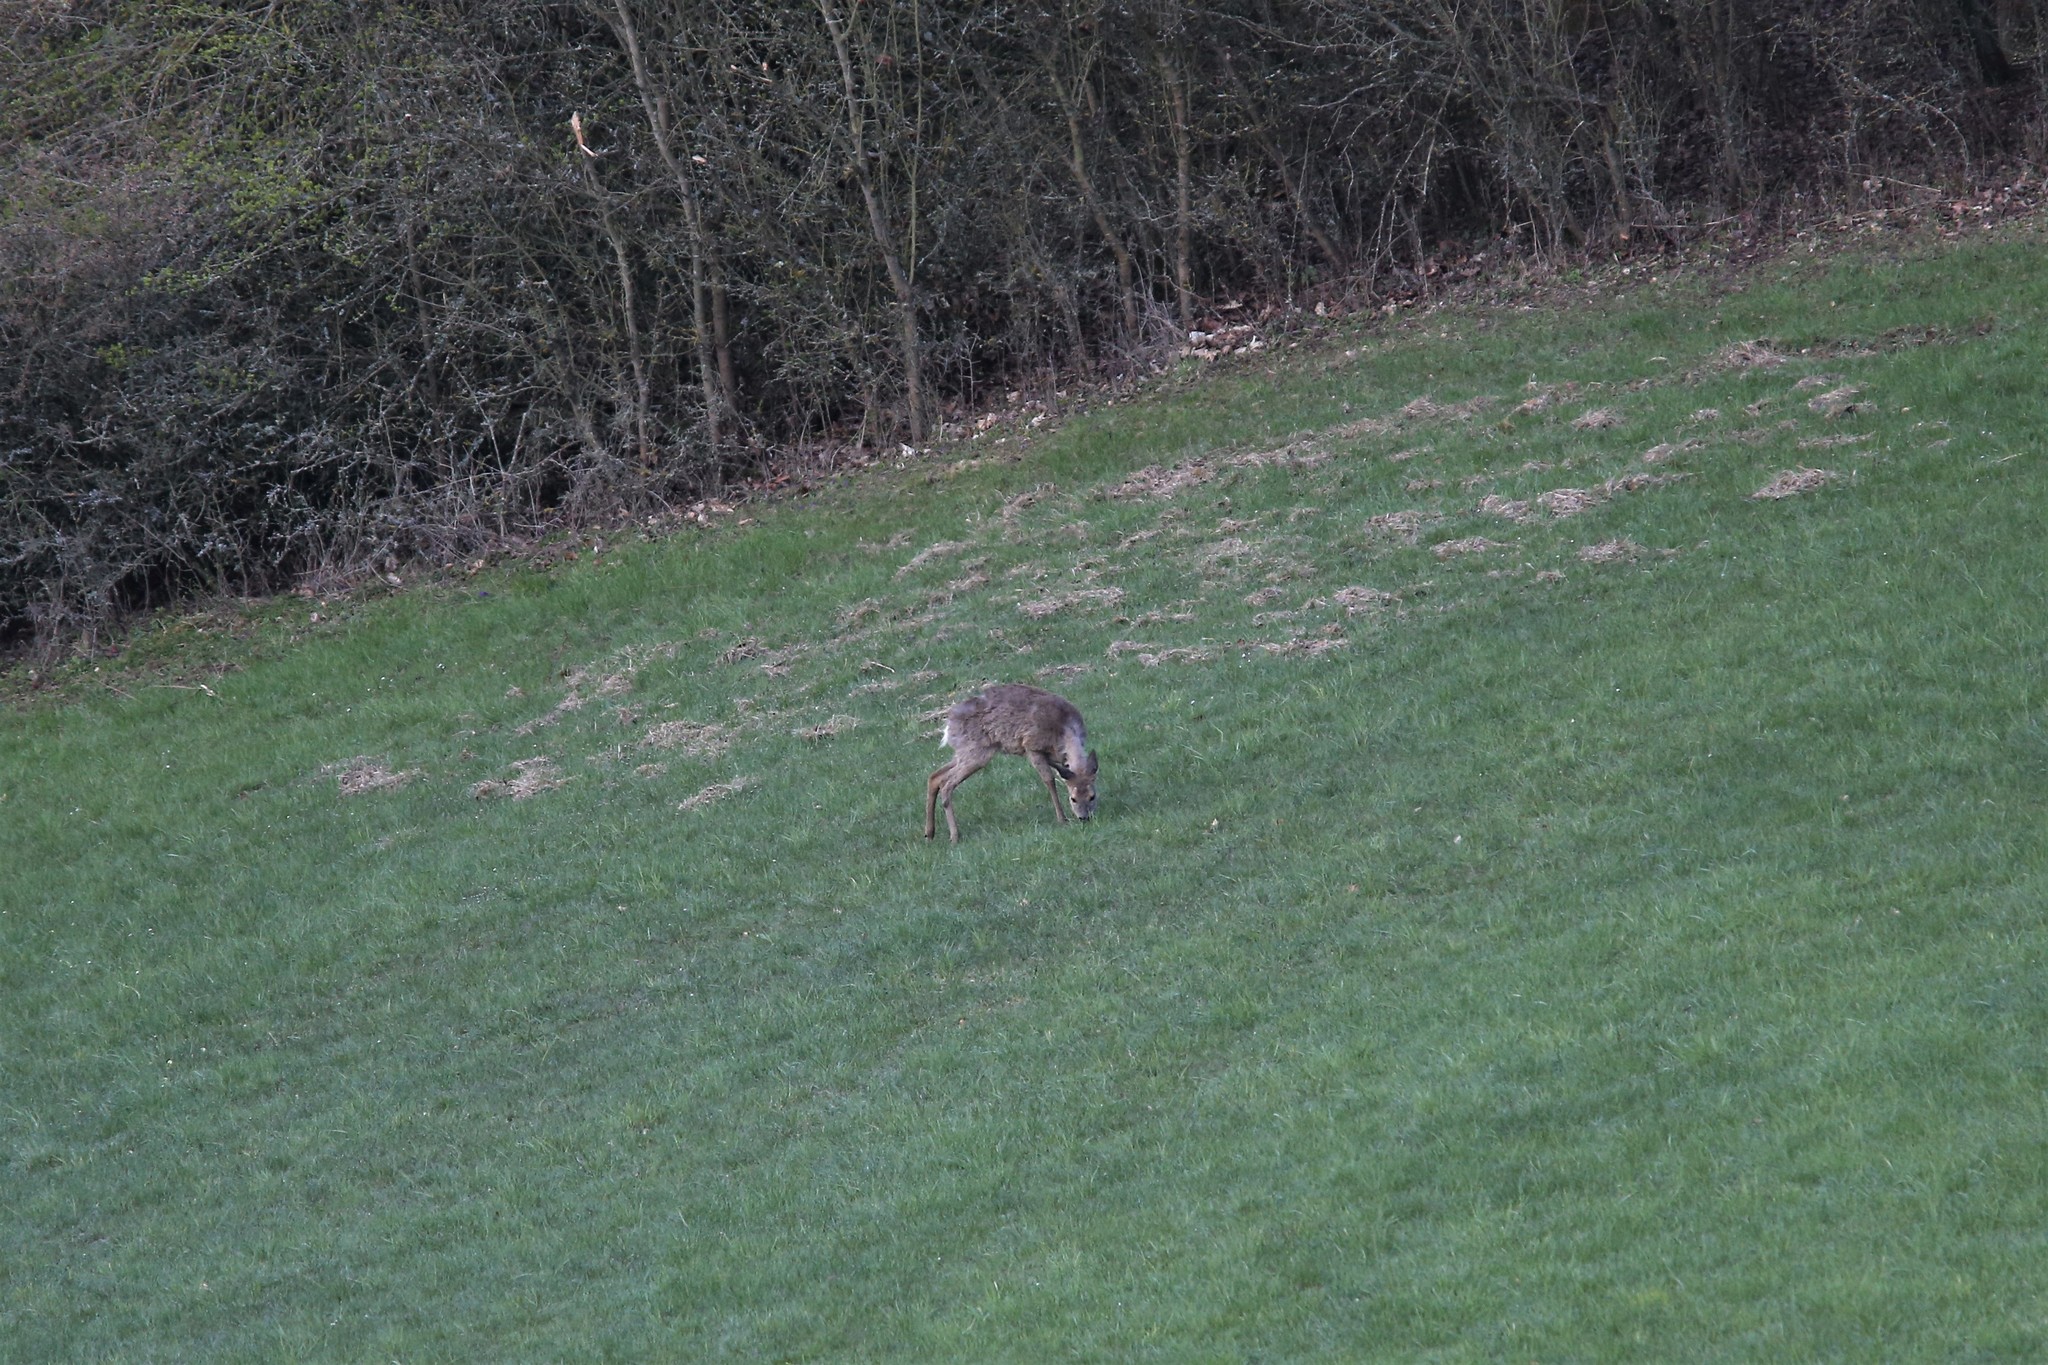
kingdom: Animalia
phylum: Chordata
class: Mammalia
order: Artiodactyla
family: Cervidae
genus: Capreolus
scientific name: Capreolus capreolus
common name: Western roe deer
